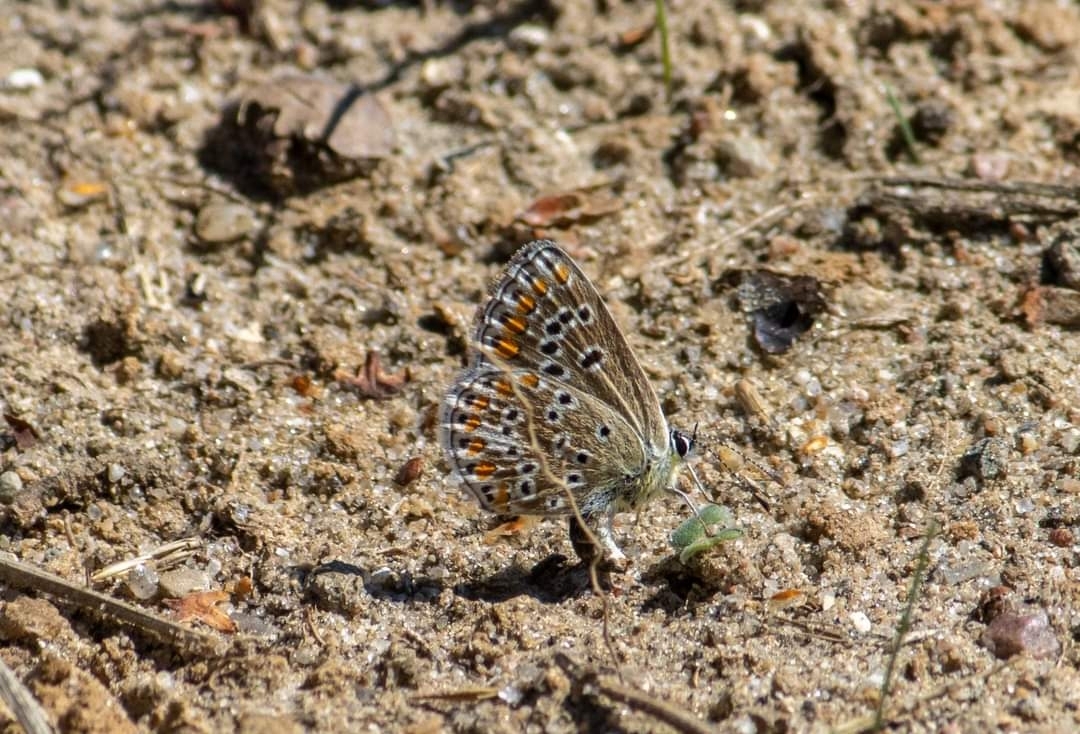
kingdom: Animalia
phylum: Arthropoda
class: Insecta
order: Lepidoptera
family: Lycaenidae
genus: Aricia
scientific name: Aricia agestis
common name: Brown argus
